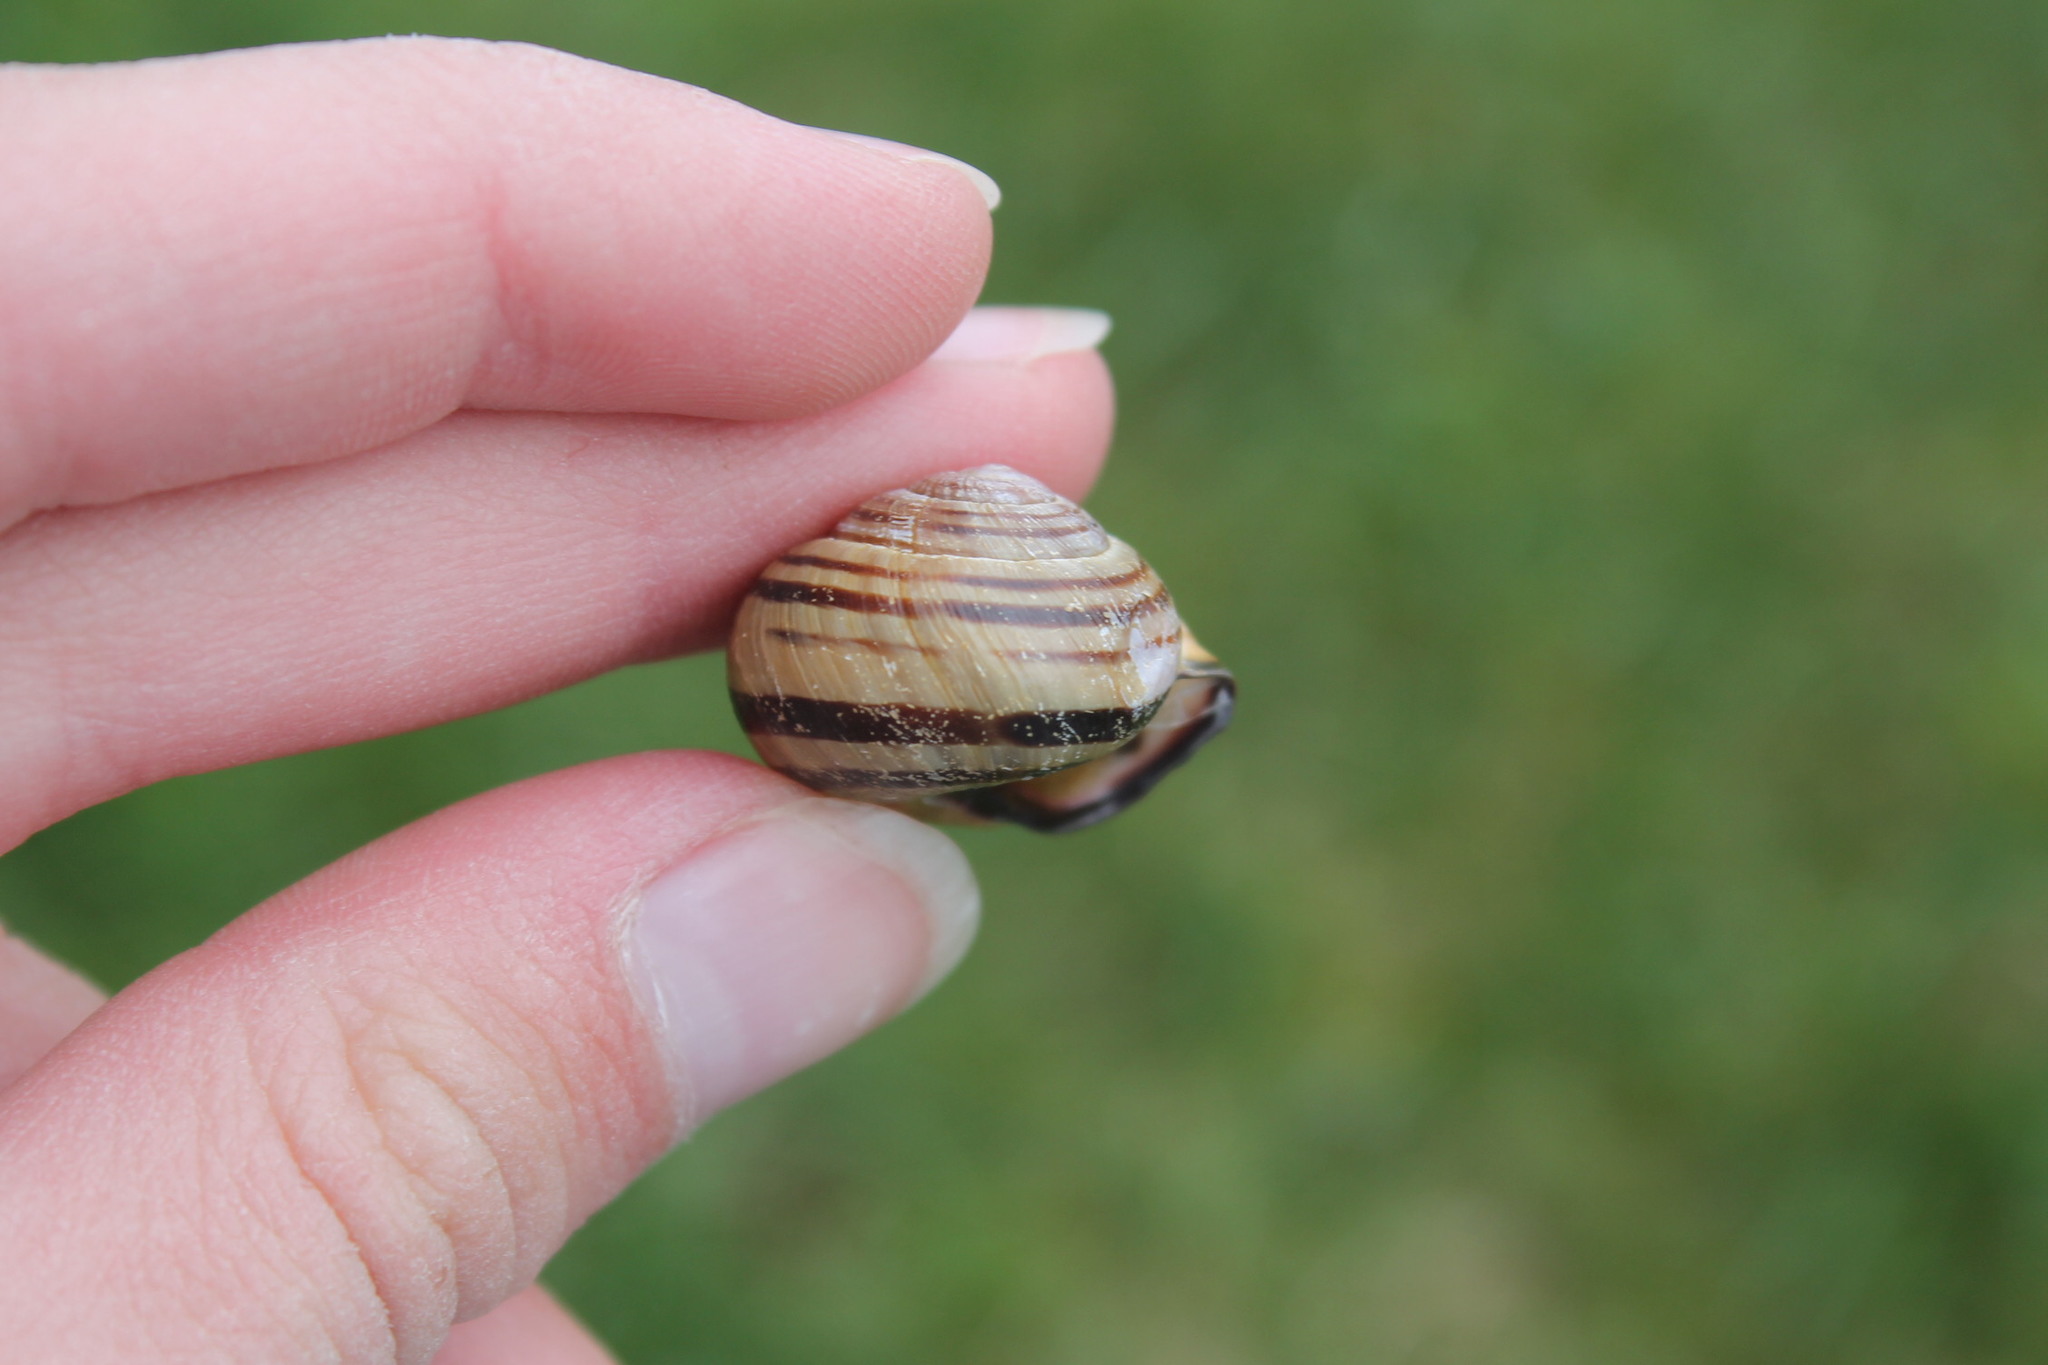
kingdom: Animalia
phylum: Mollusca
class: Gastropoda
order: Stylommatophora
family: Helicidae
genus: Cepaea
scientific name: Cepaea nemoralis
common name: Grovesnail
